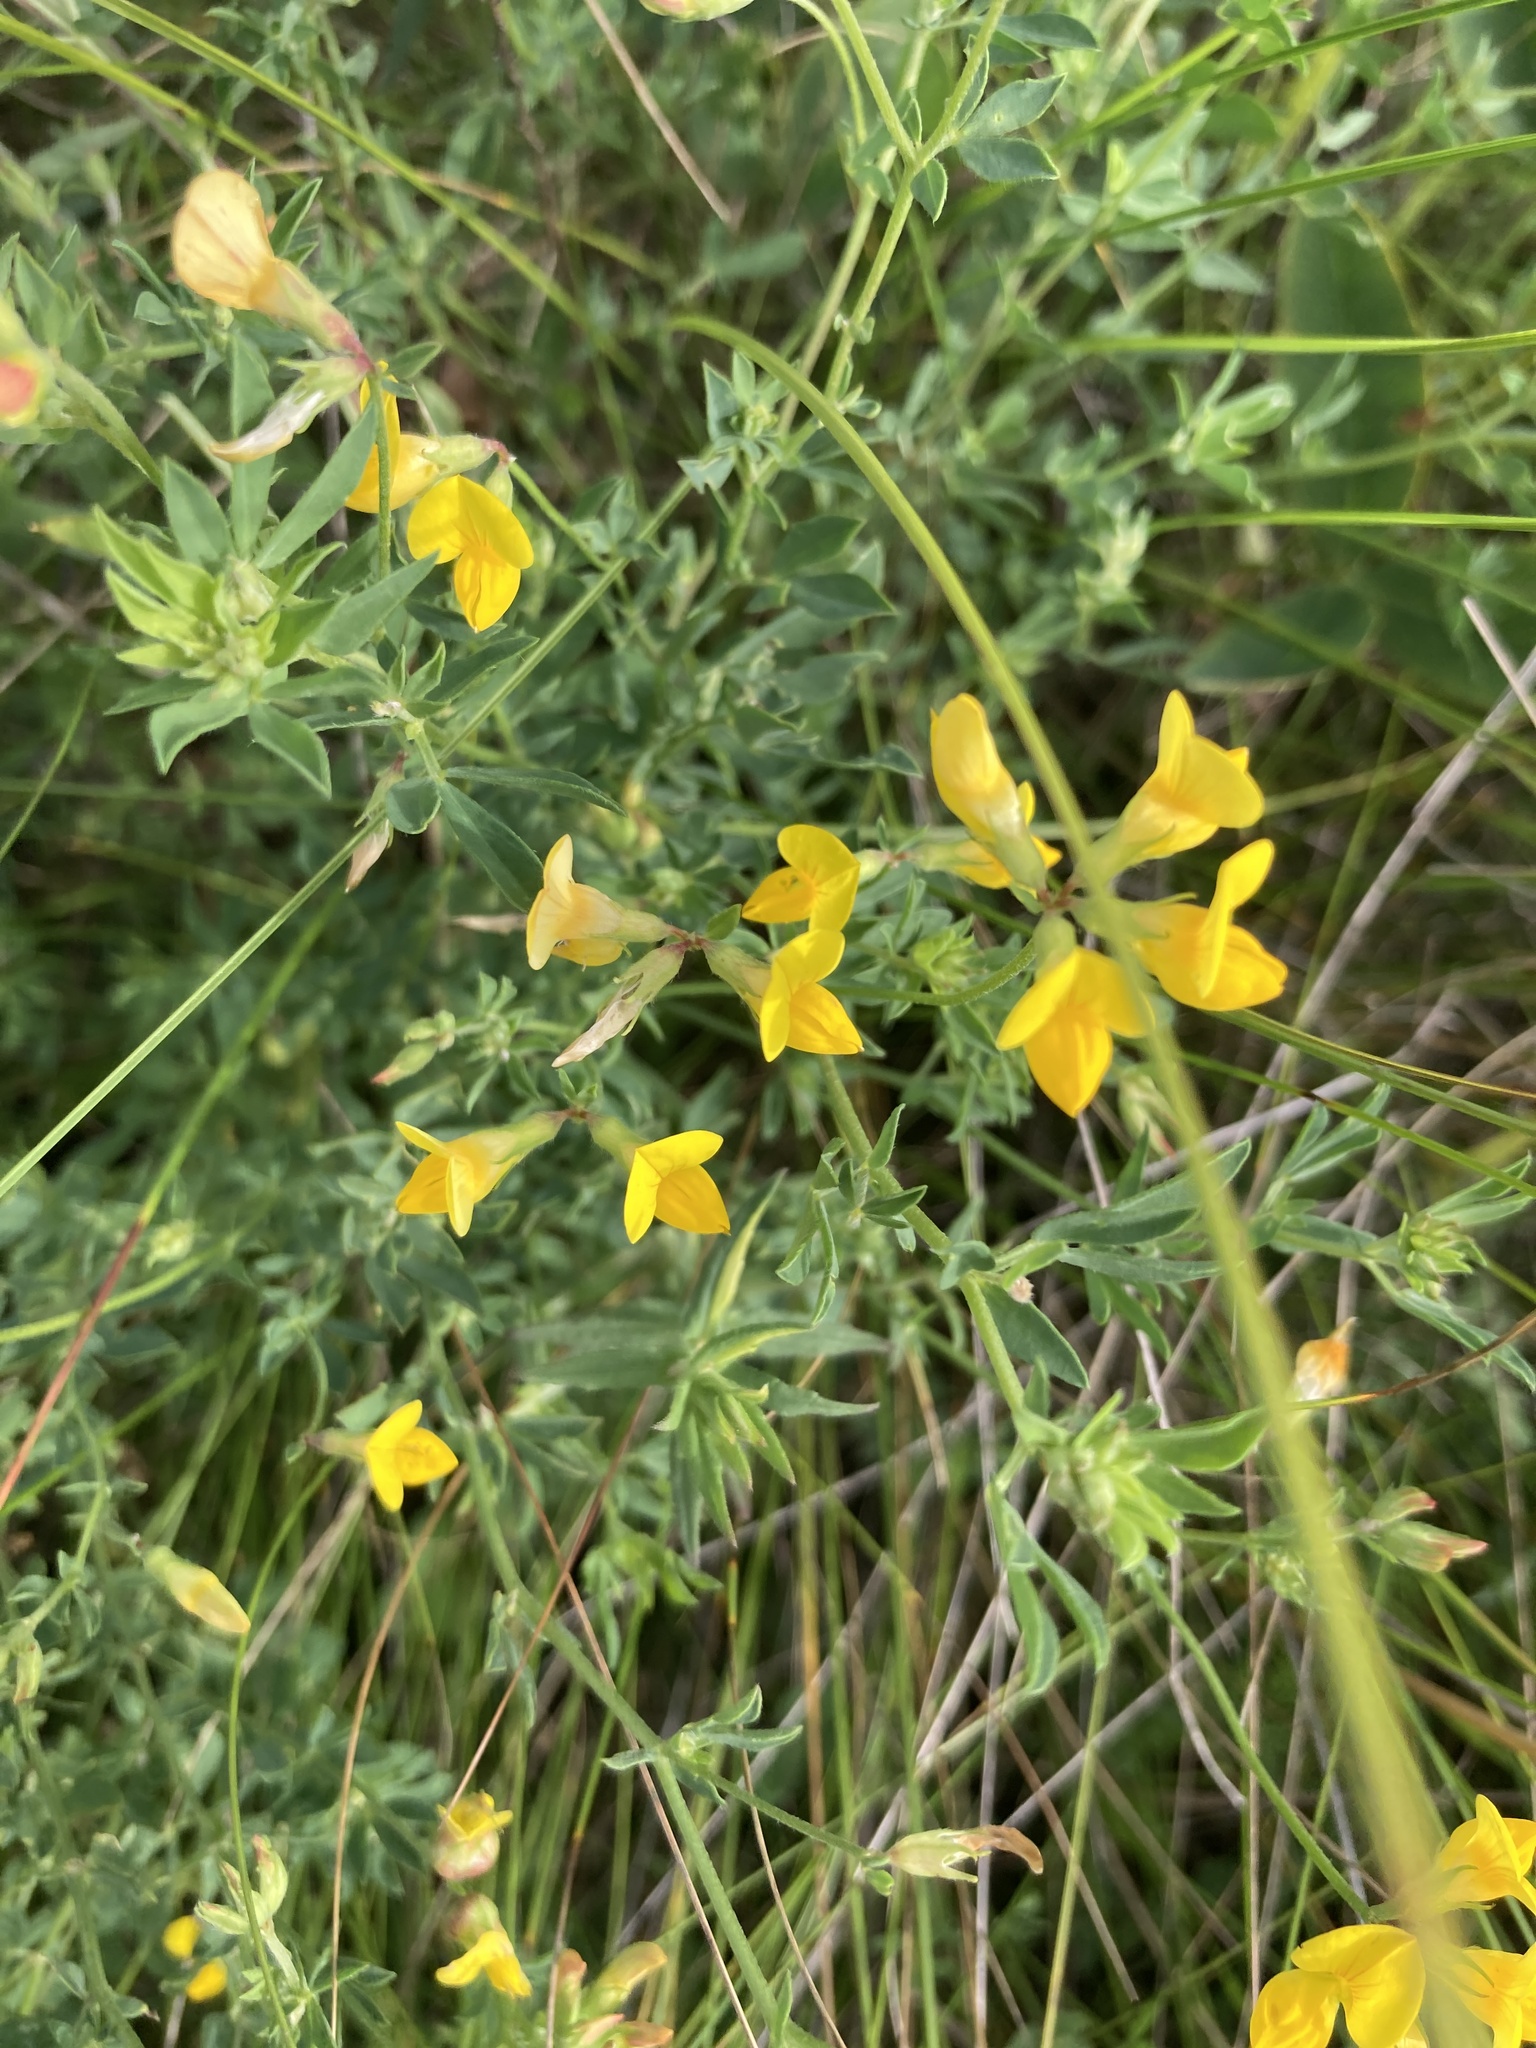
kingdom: Plantae
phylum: Tracheophyta
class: Magnoliopsida
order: Fabales
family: Fabaceae
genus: Lotus
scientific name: Lotus corniculatus
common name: Common bird's-foot-trefoil
